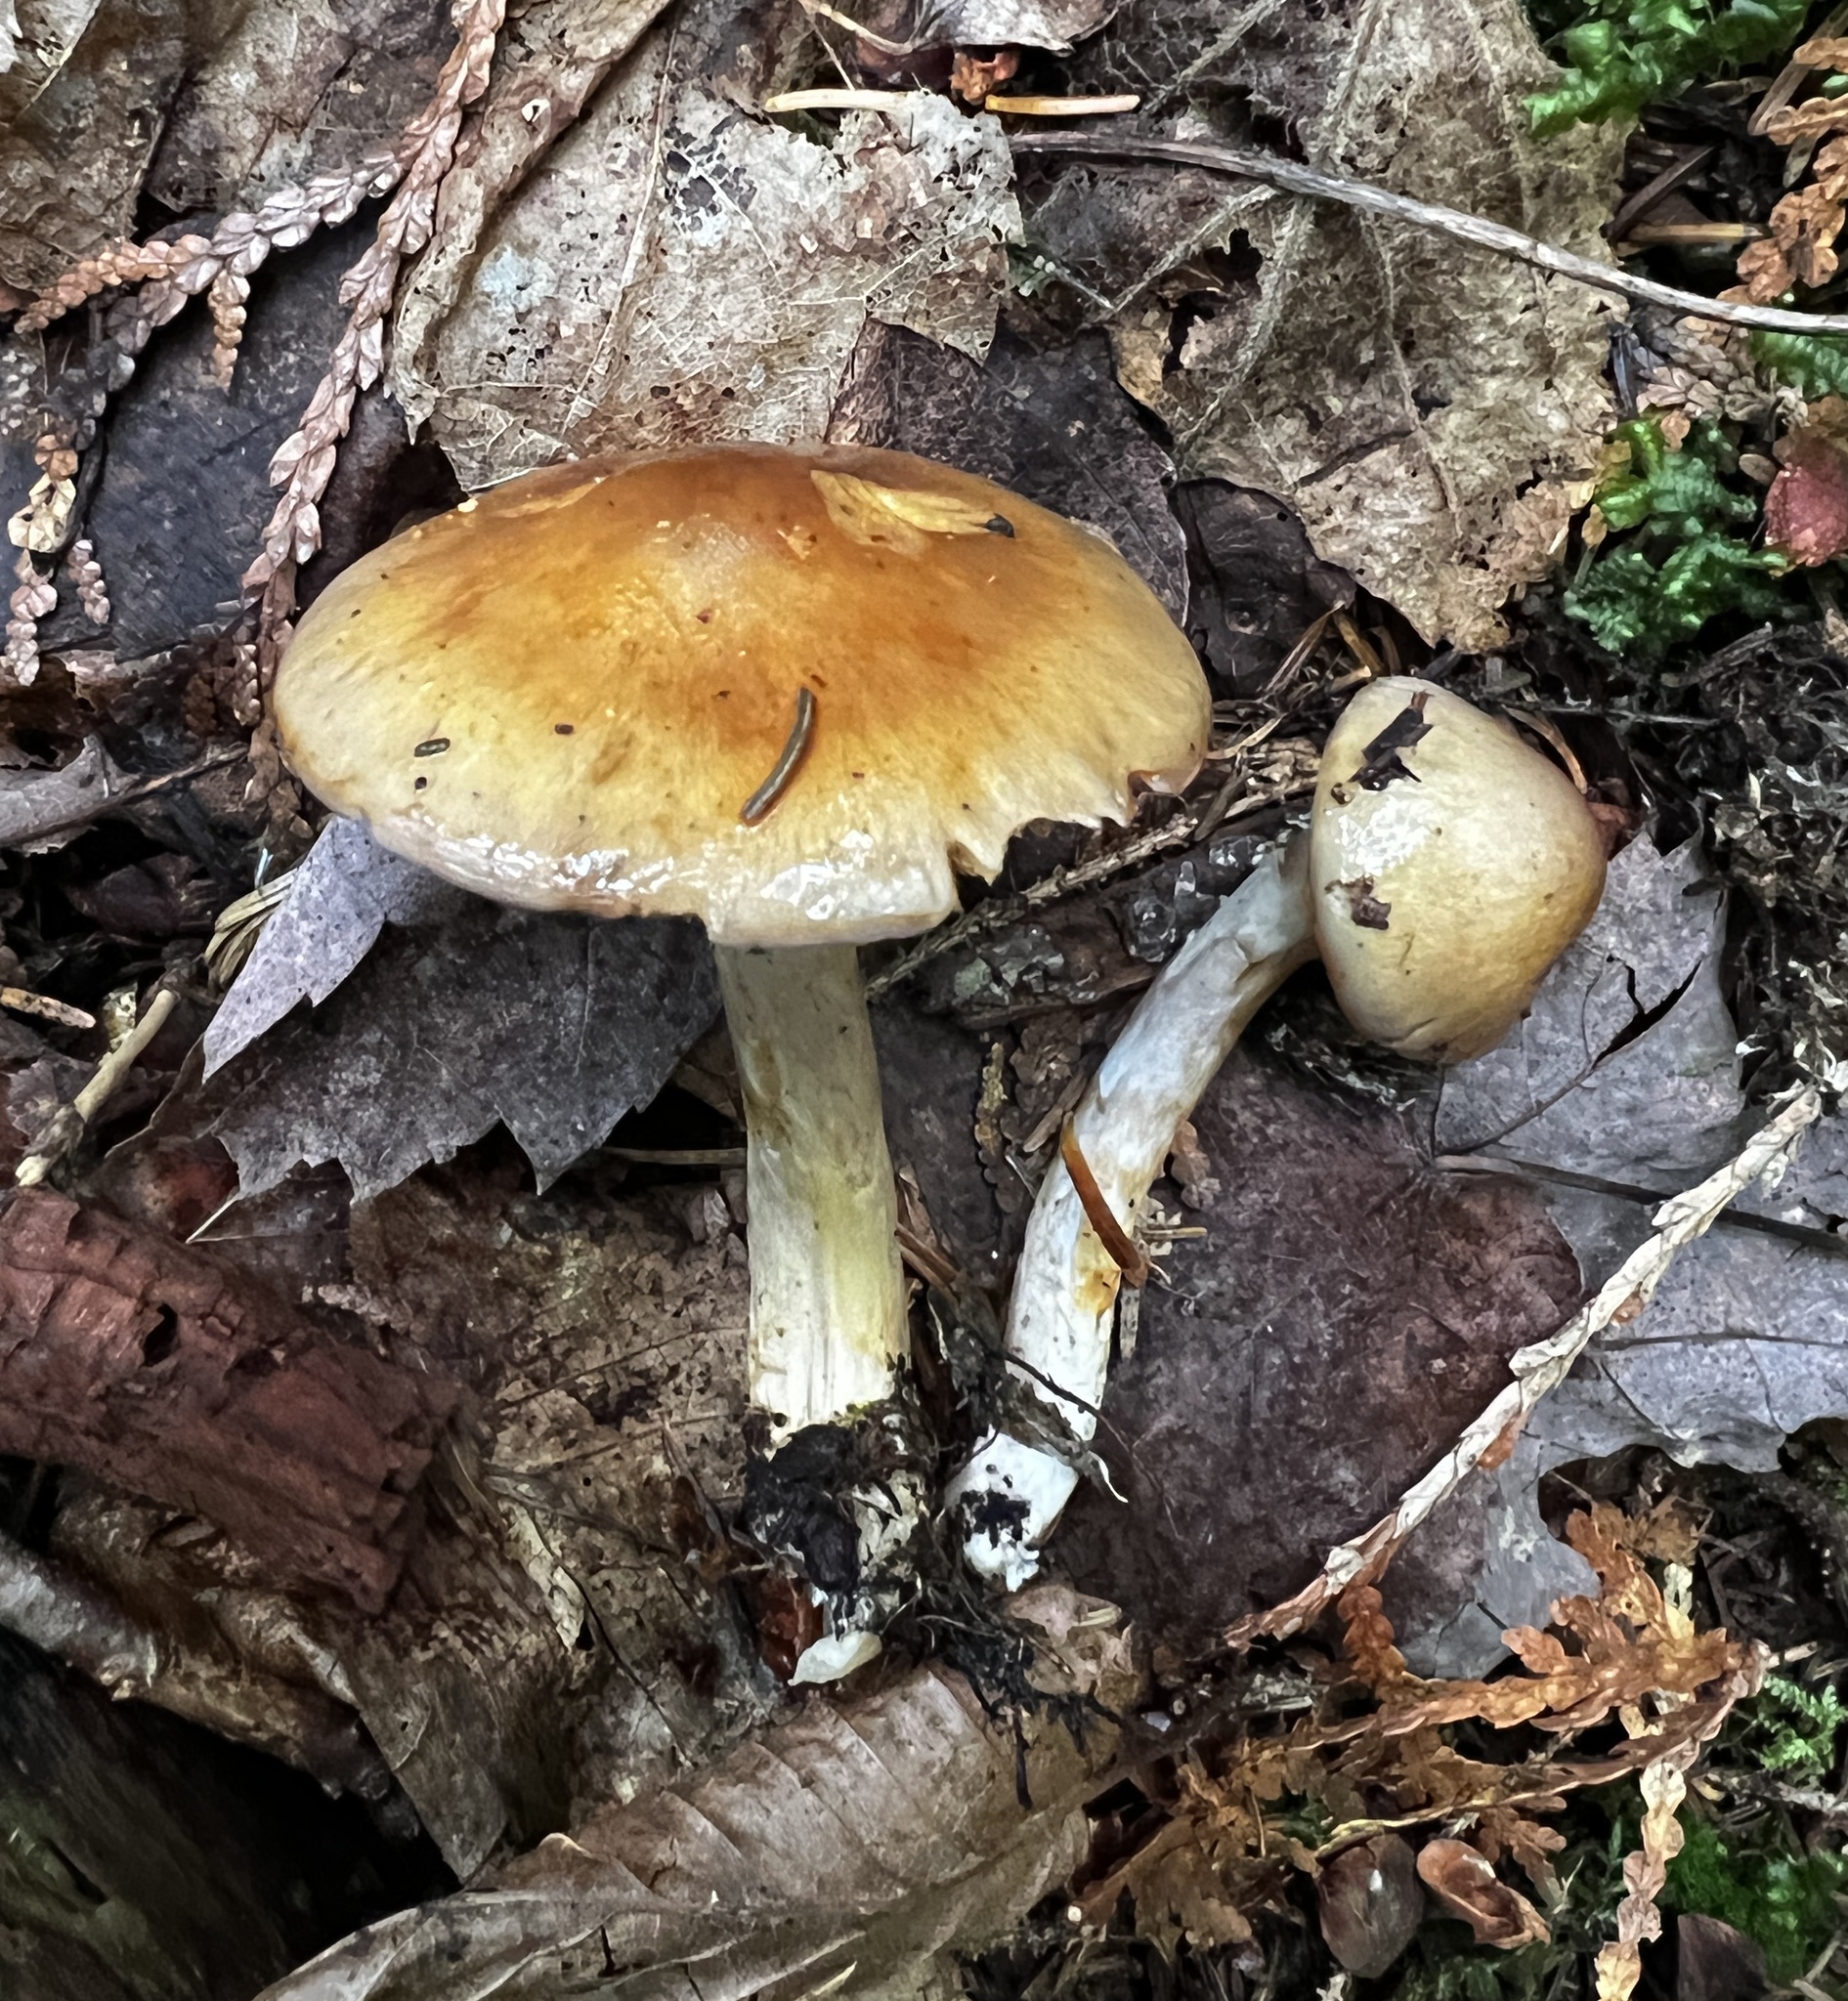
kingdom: Fungi
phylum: Basidiomycota
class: Agaricomycetes
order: Agaricales
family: Cortinariaceae
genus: Cortinarius
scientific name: Cortinarius transiens
